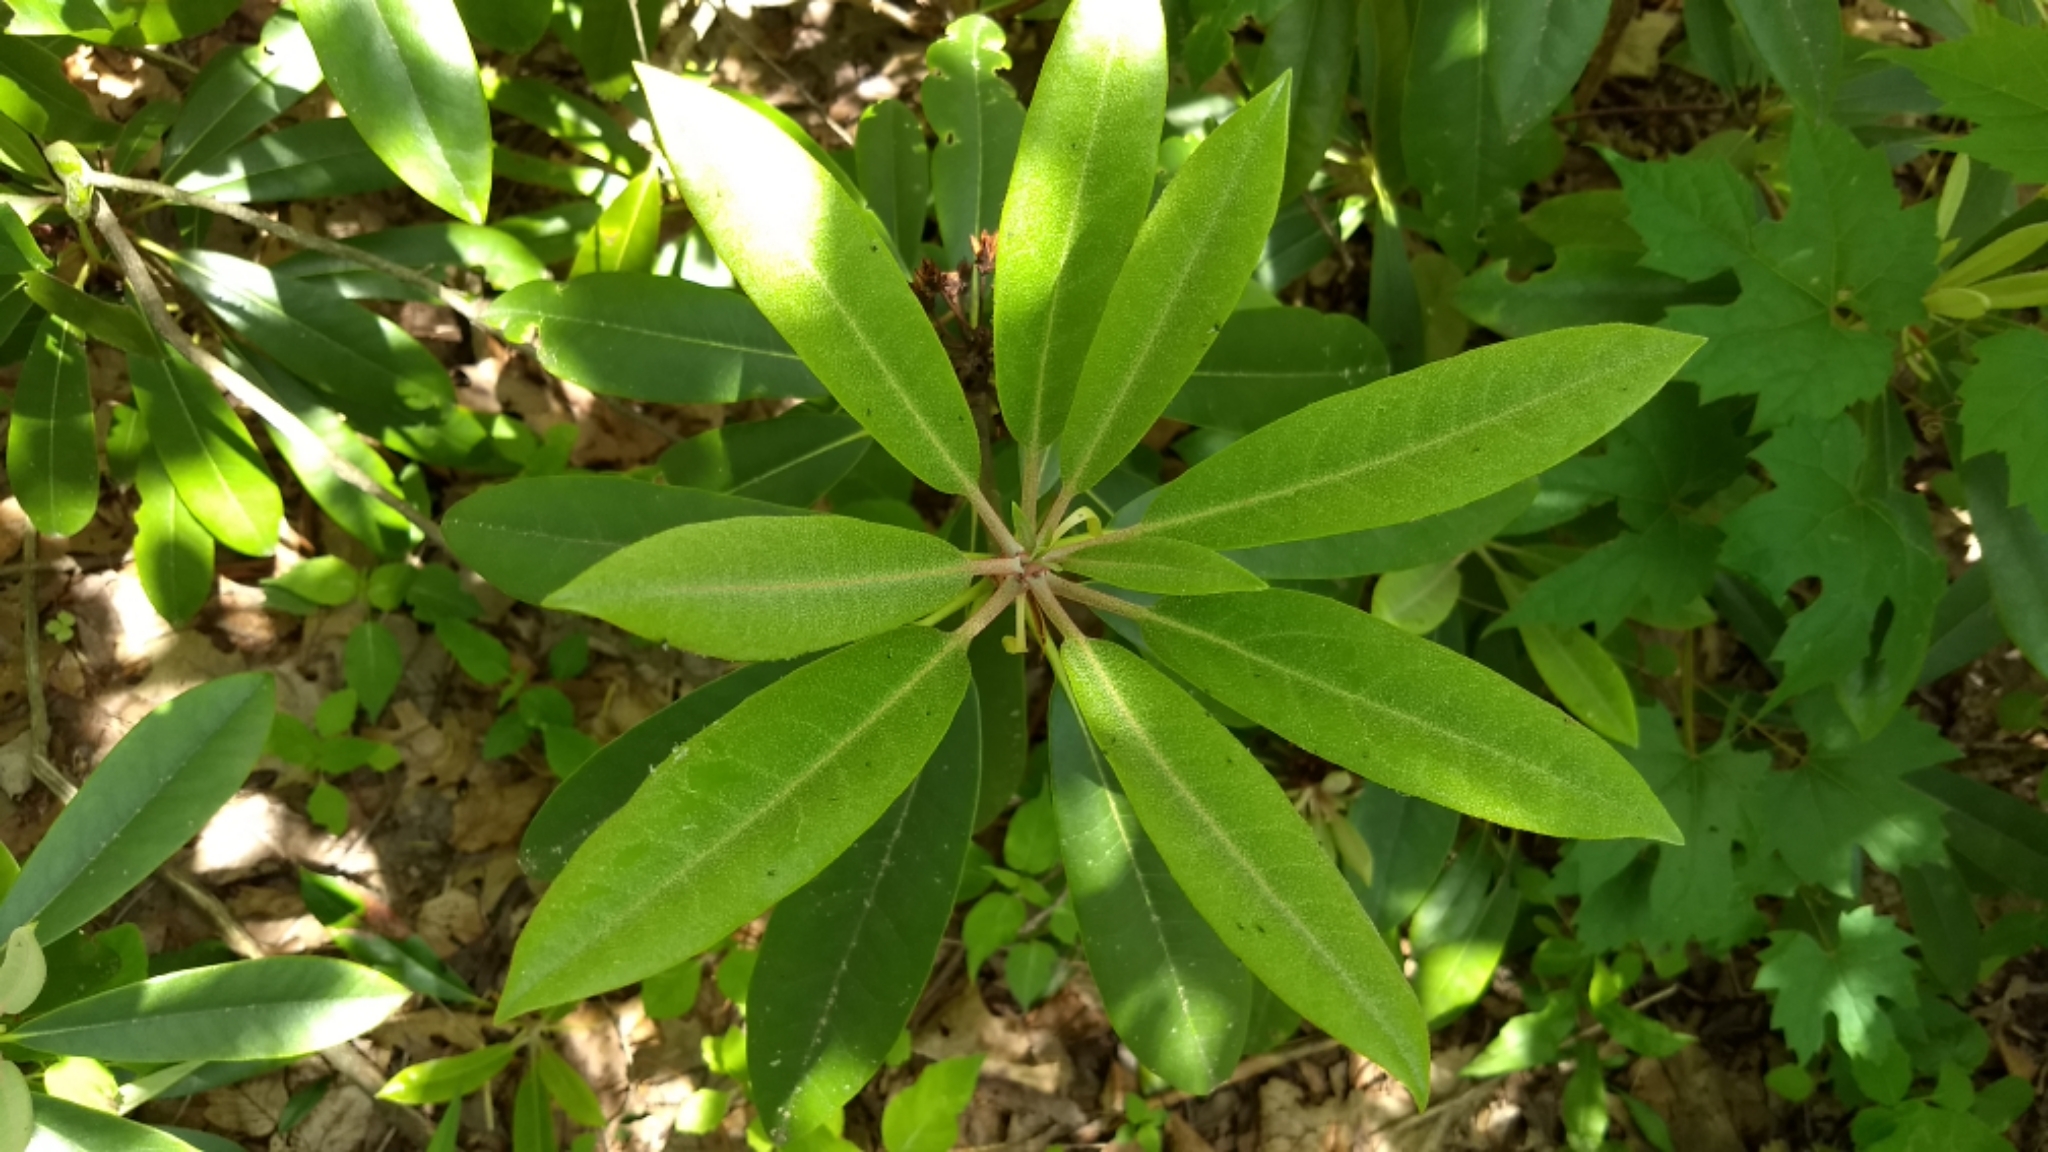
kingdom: Plantae
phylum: Tracheophyta
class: Magnoliopsida
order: Ericales
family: Ericaceae
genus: Rhododendron
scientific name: Rhododendron maximum
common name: Great rhododendron
